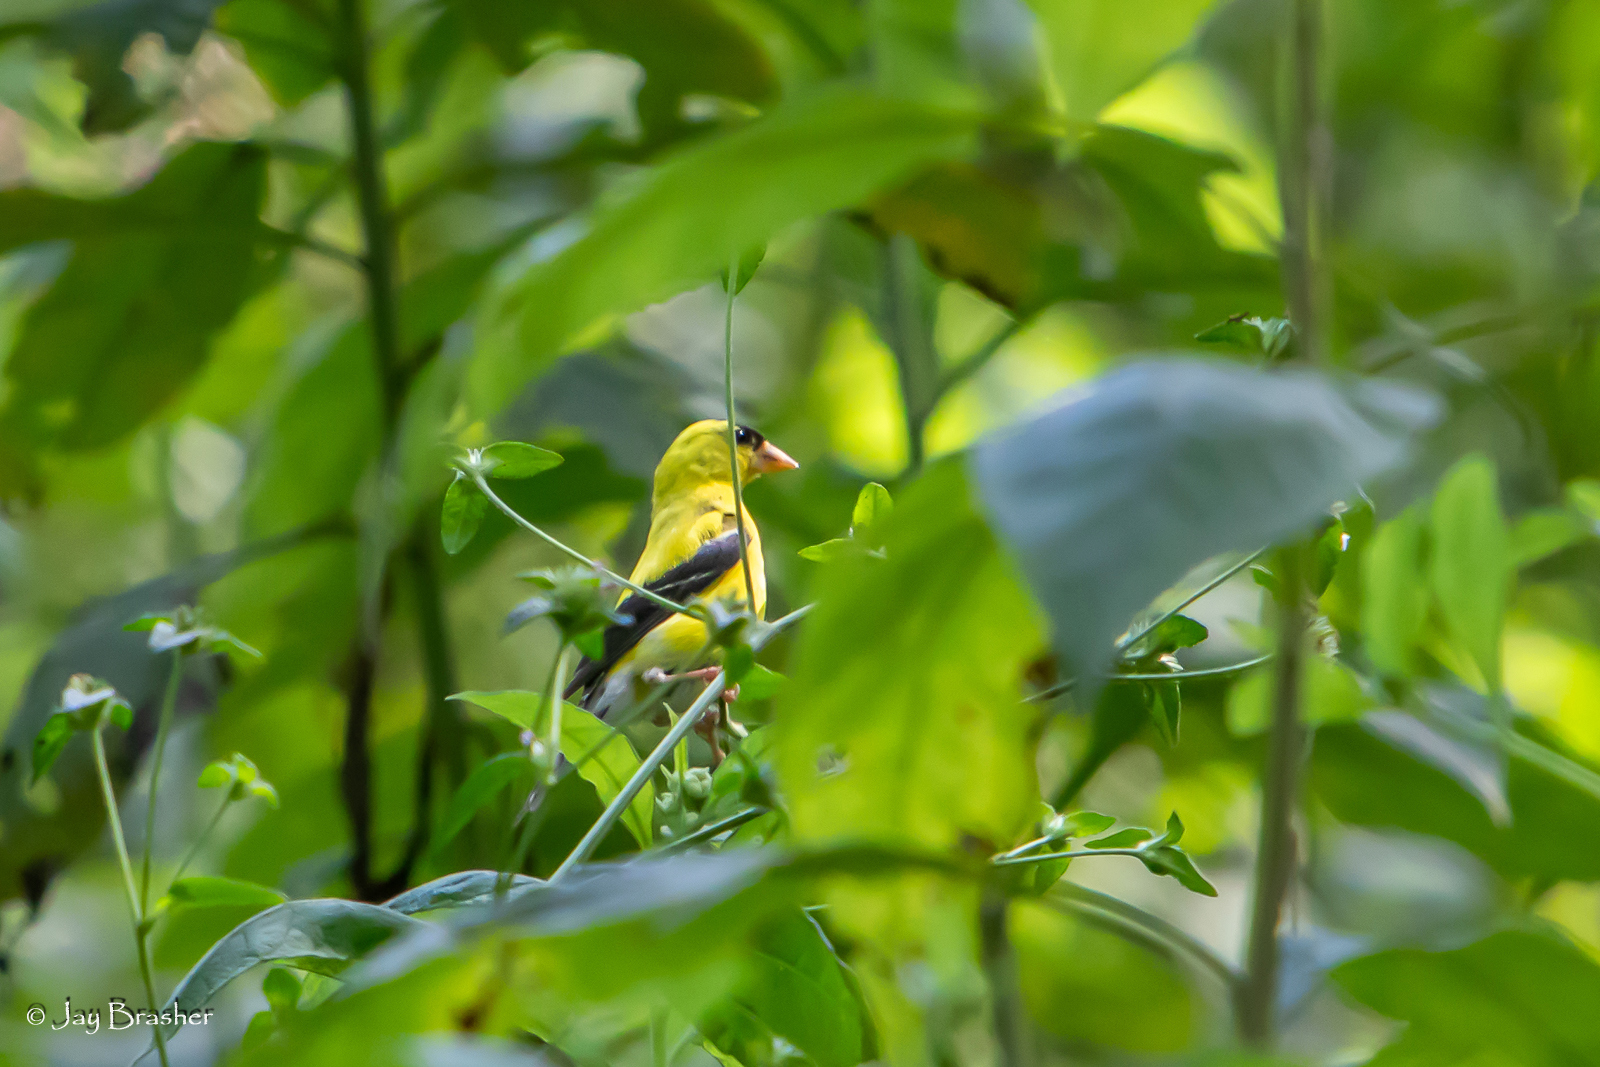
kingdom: Animalia
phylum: Chordata
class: Aves
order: Passeriformes
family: Fringillidae
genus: Spinus
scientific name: Spinus tristis
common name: American goldfinch
